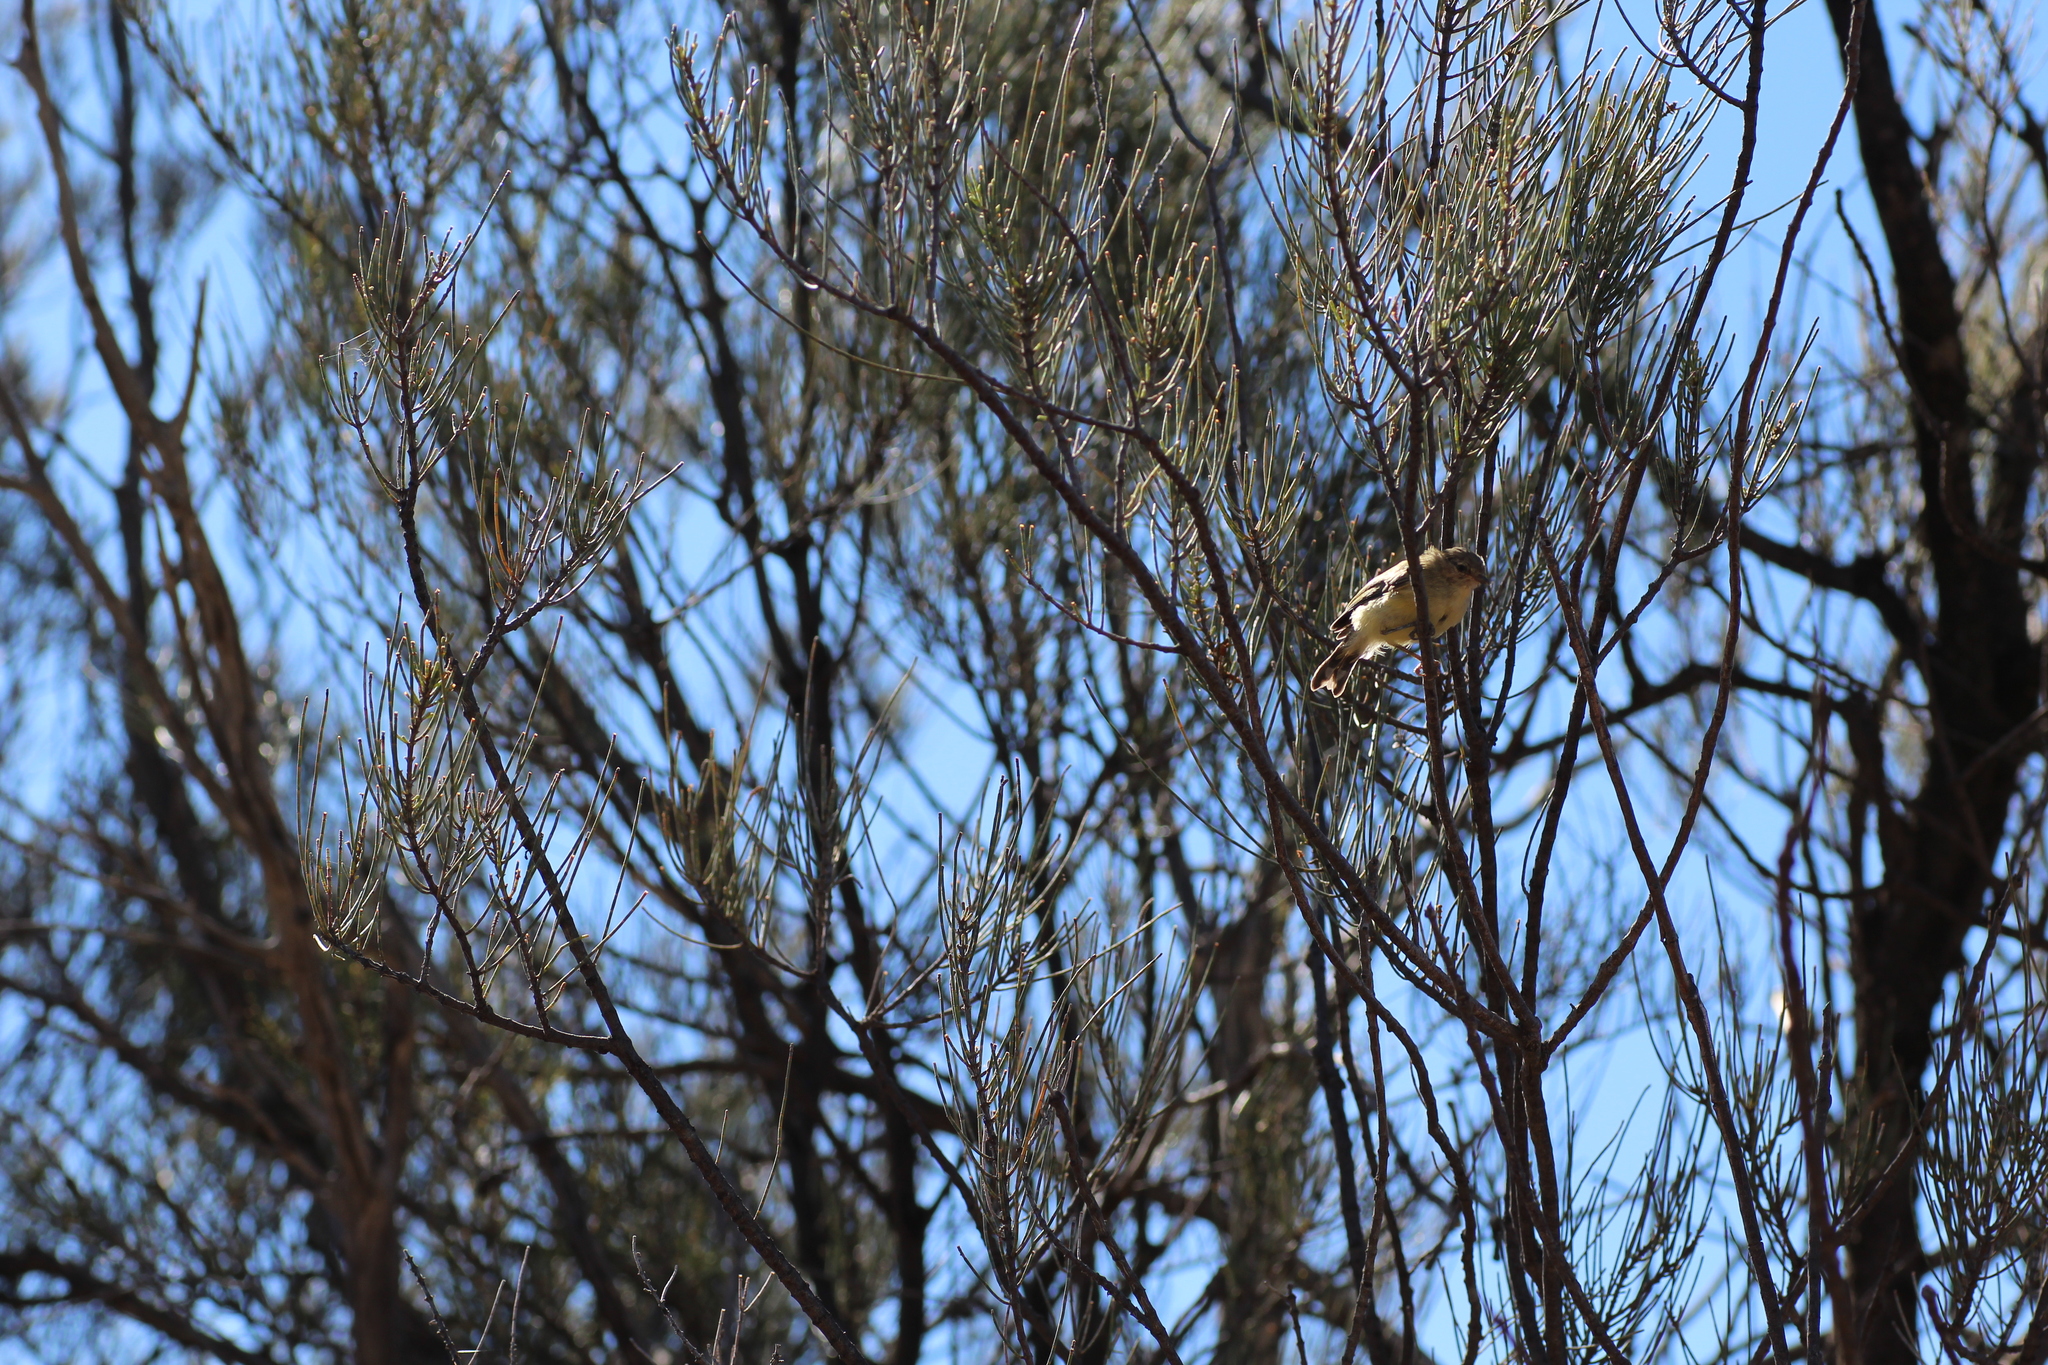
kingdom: Animalia
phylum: Chordata
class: Aves
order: Passeriformes
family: Acanthizidae
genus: Smicrornis
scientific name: Smicrornis brevirostris
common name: Weebill
